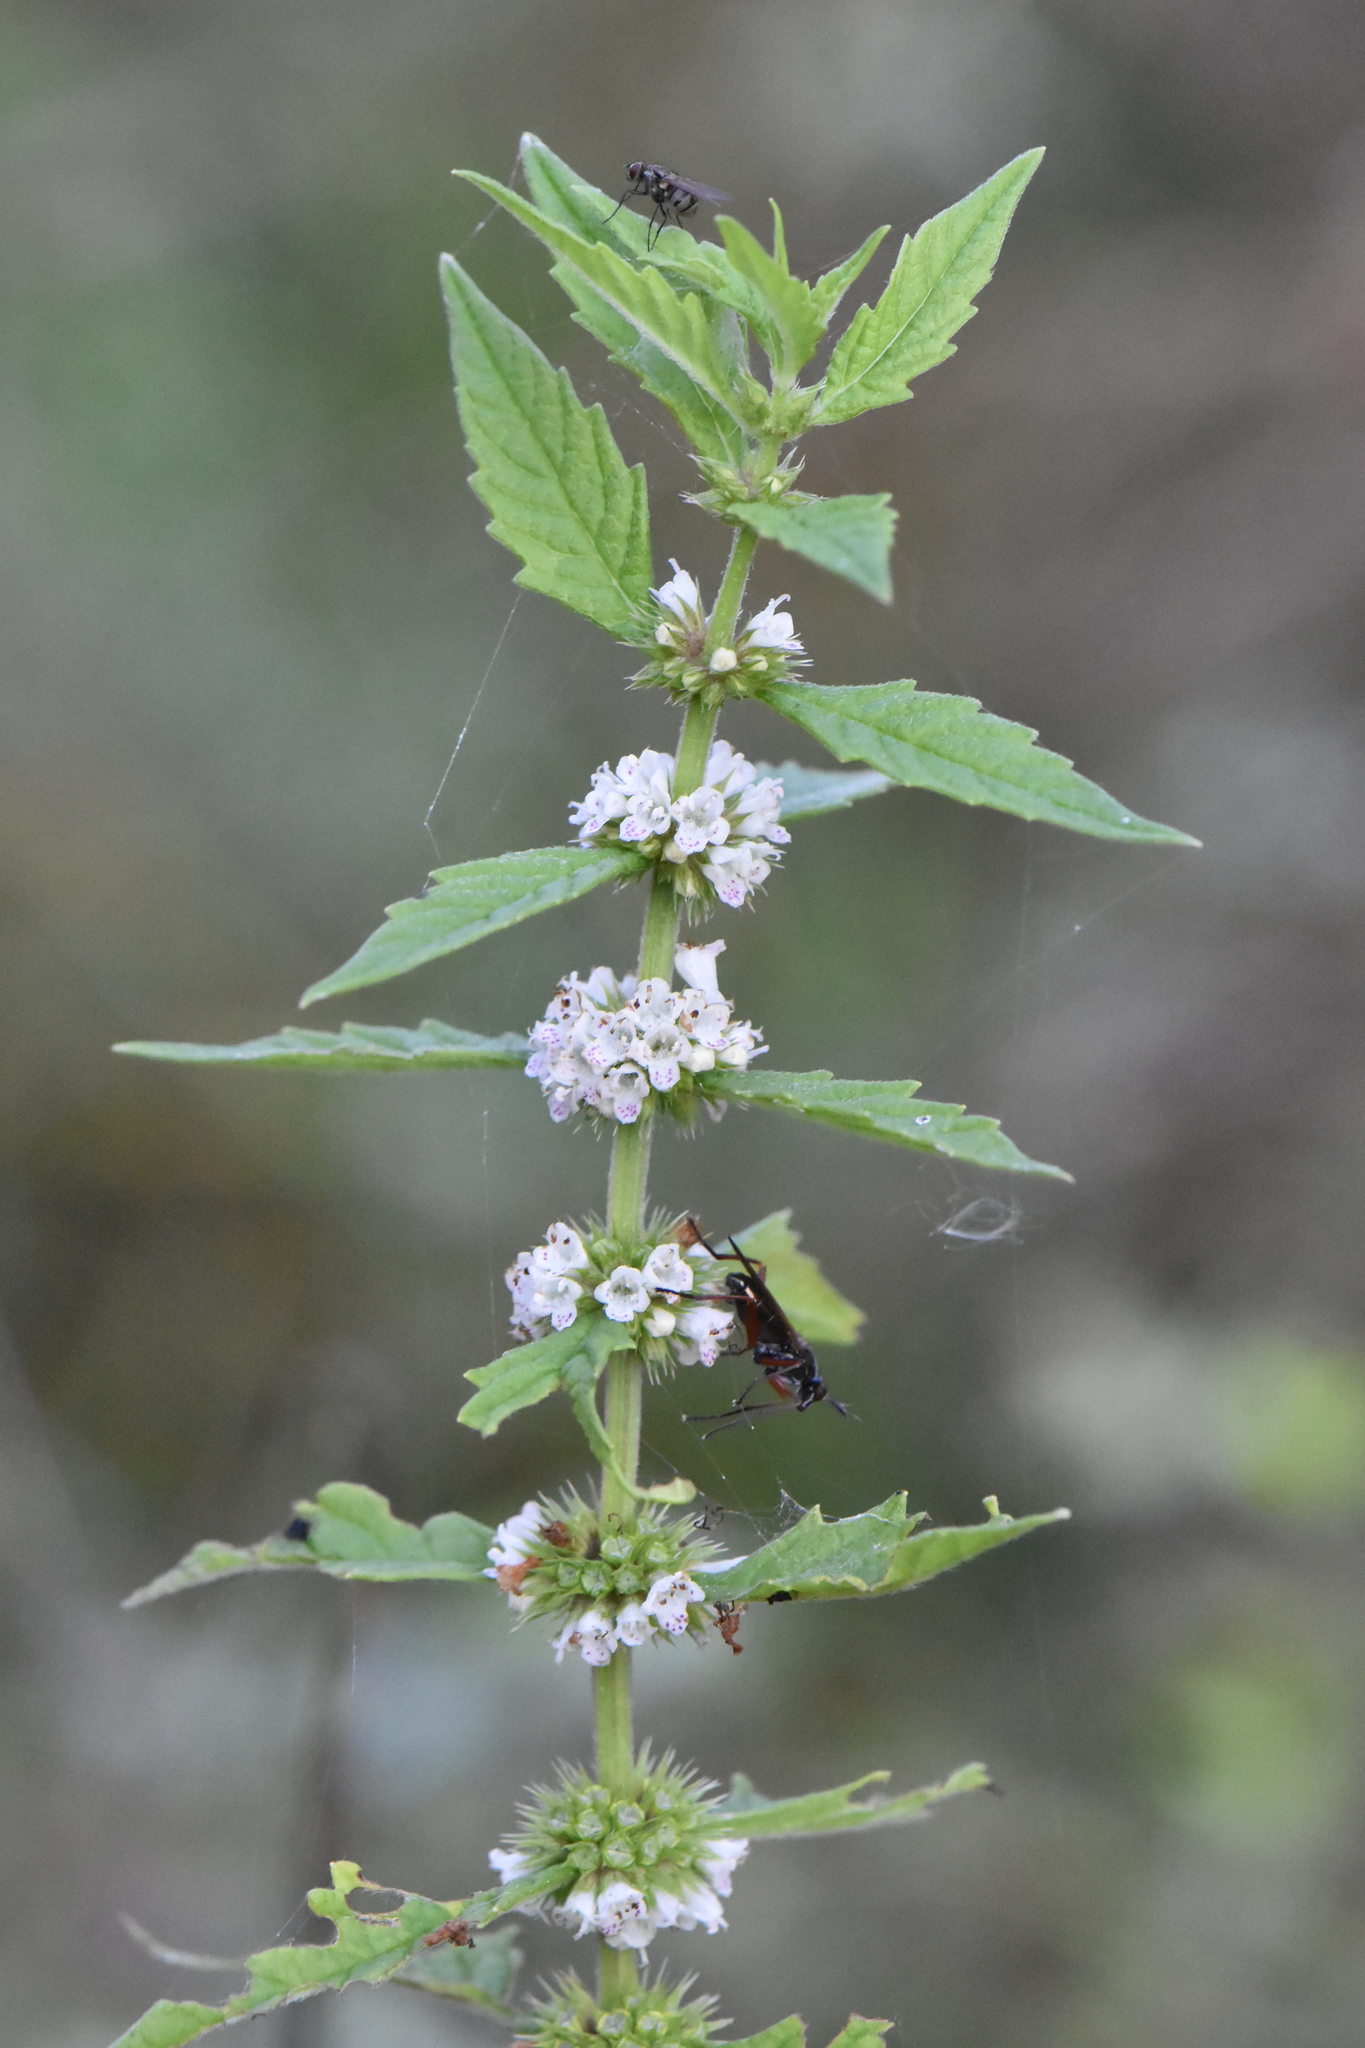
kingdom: Plantae
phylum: Tracheophyta
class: Magnoliopsida
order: Lamiales
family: Lamiaceae
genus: Lycopus
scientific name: Lycopus europaeus
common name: European bugleweed
